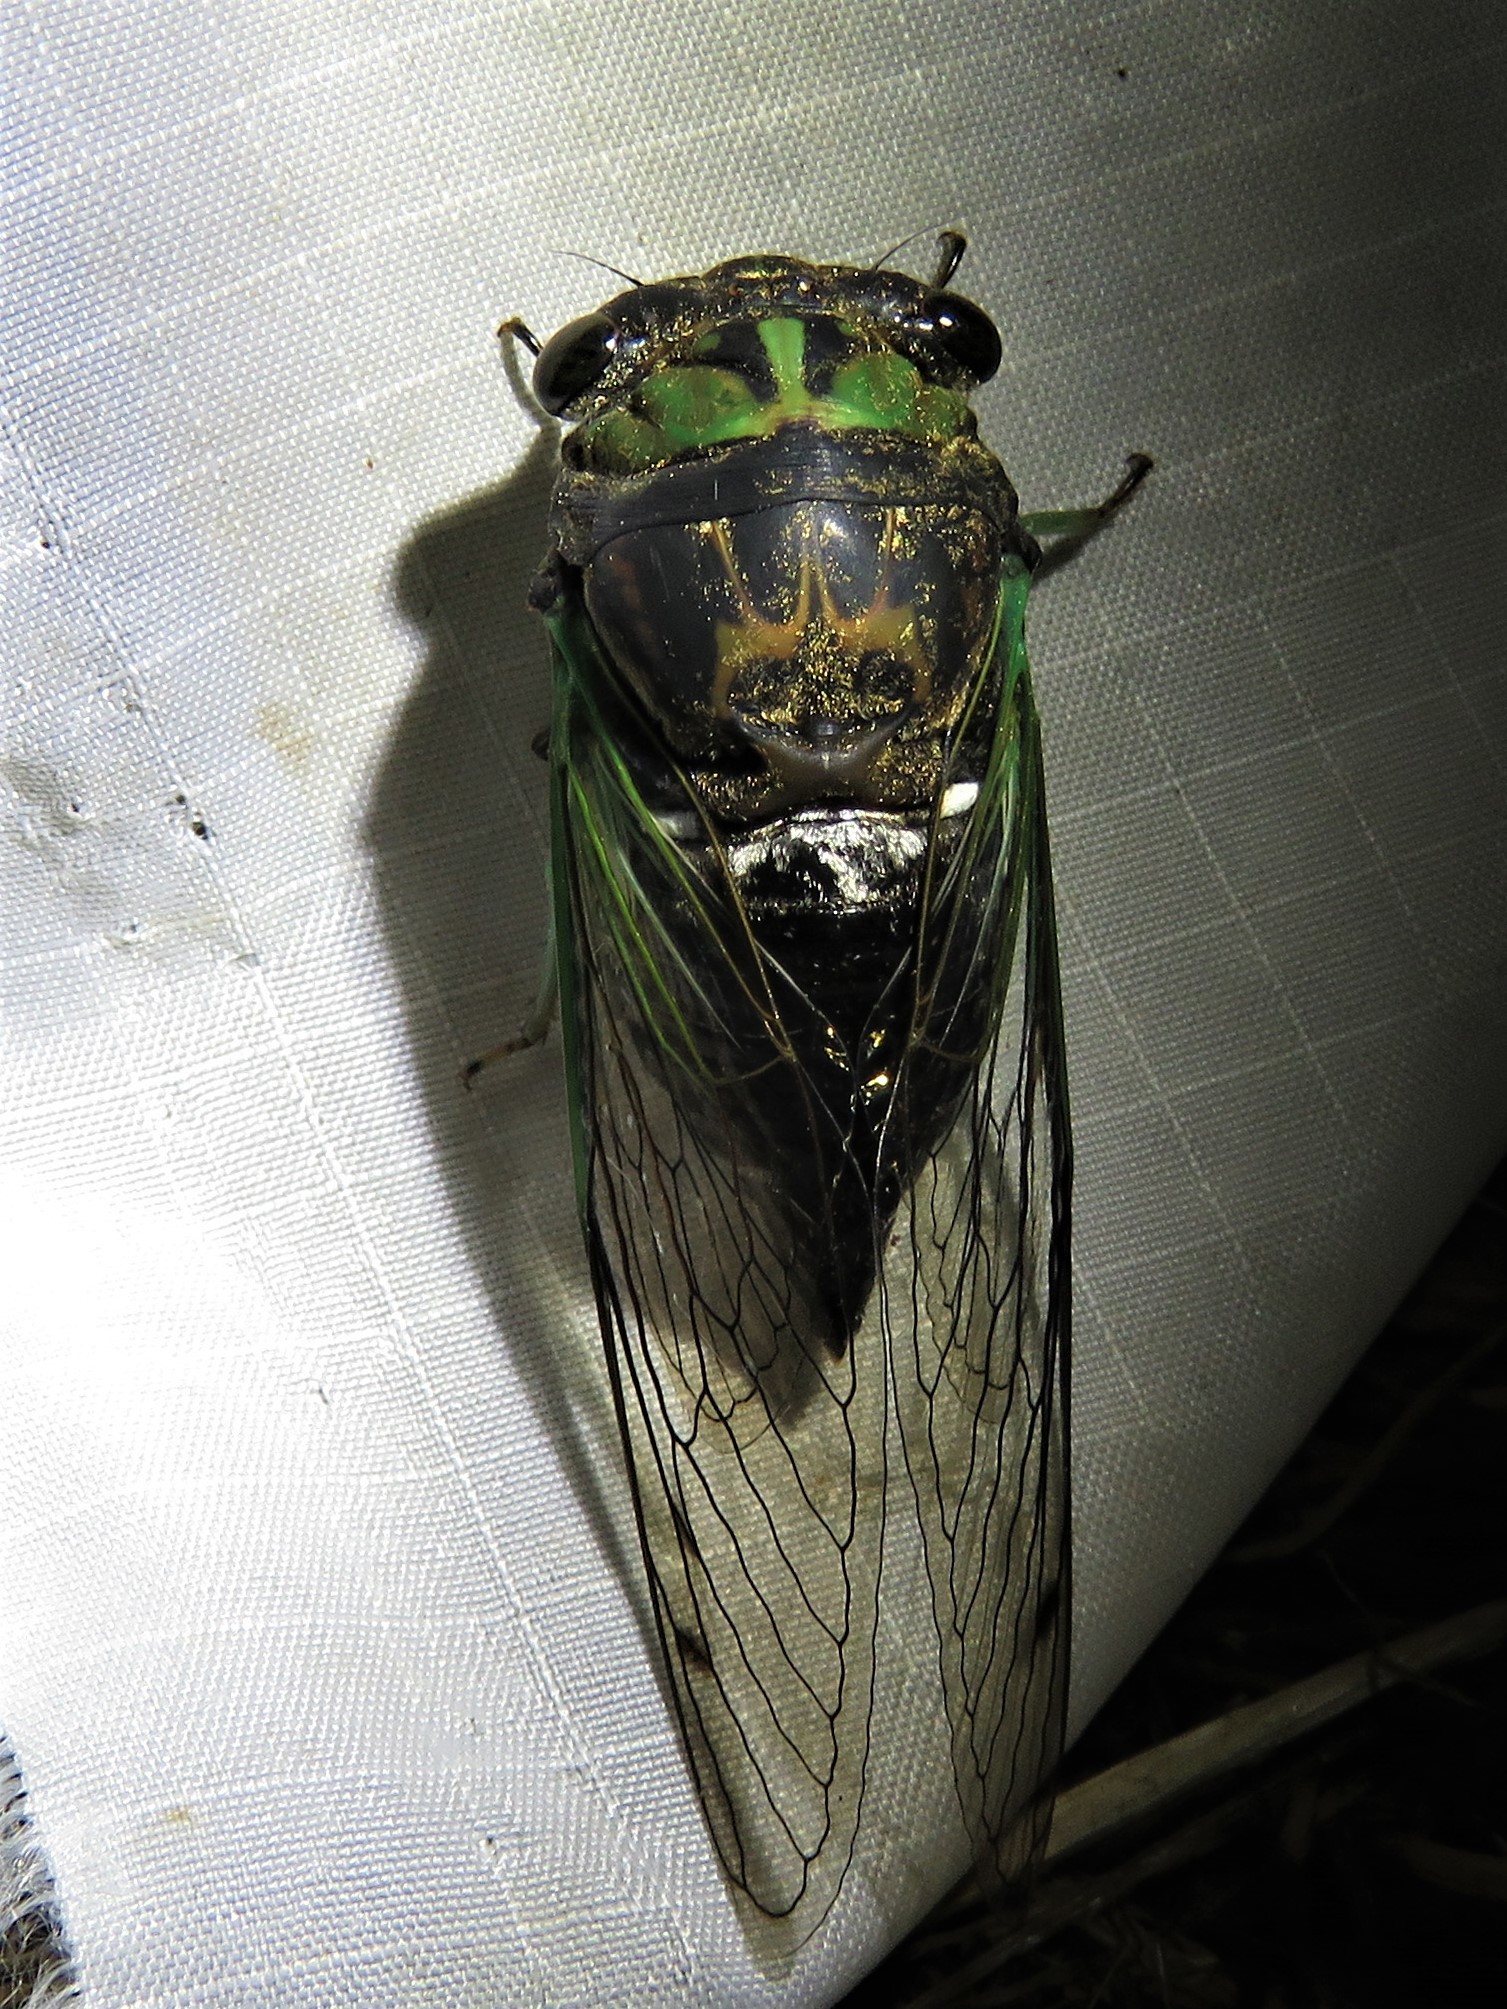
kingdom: Animalia
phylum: Arthropoda
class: Insecta
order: Hemiptera
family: Cicadidae
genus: Neotibicen
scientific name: Neotibicen tibicen
